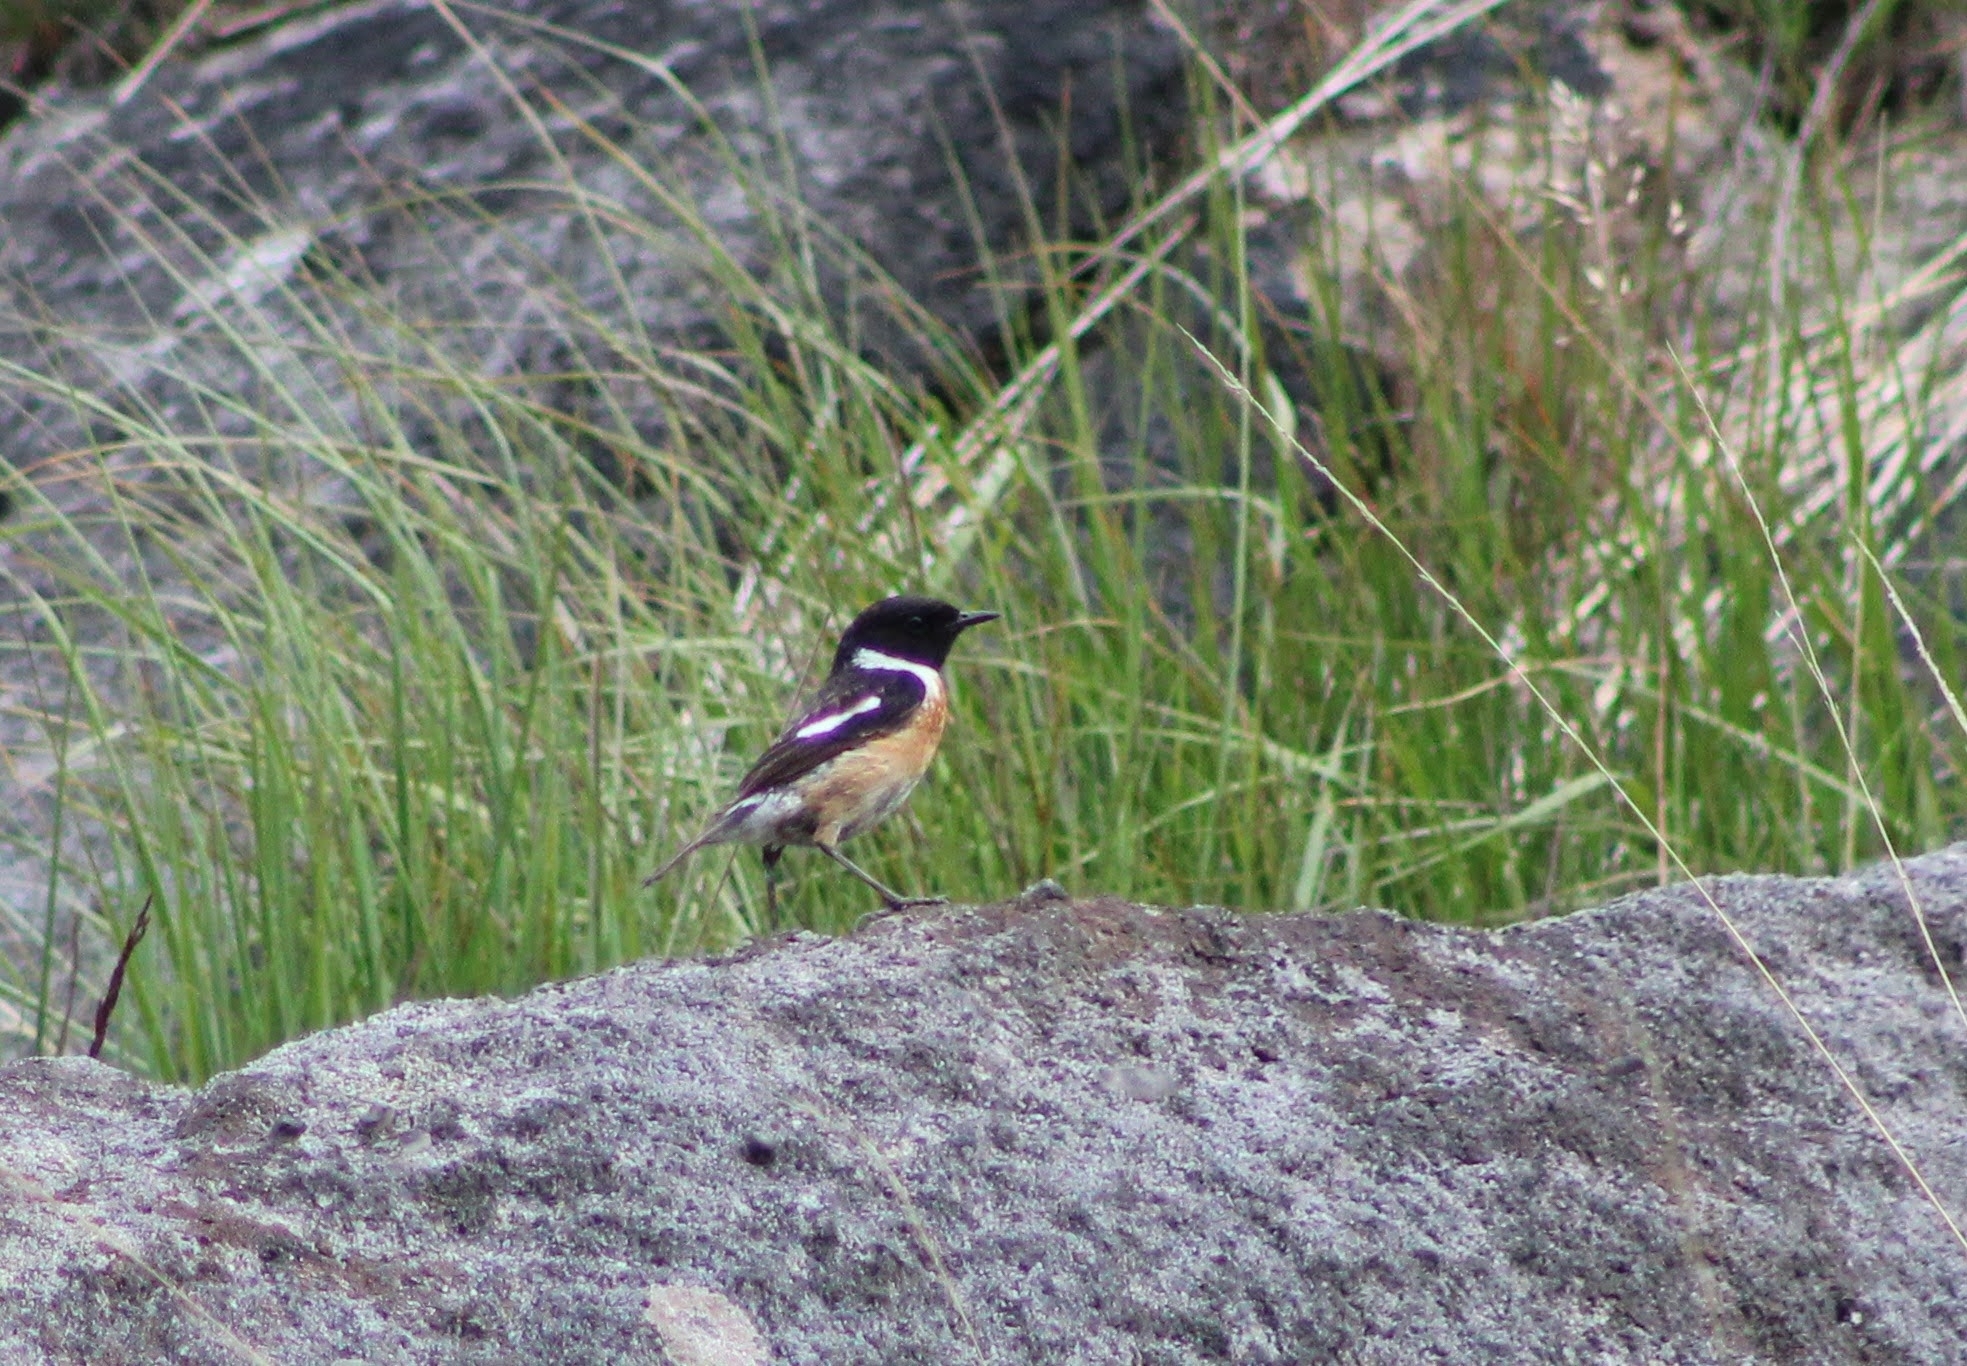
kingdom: Animalia
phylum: Chordata
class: Aves
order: Passeriformes
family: Muscicapidae
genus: Saxicola
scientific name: Saxicola rubicola
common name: European stonechat
